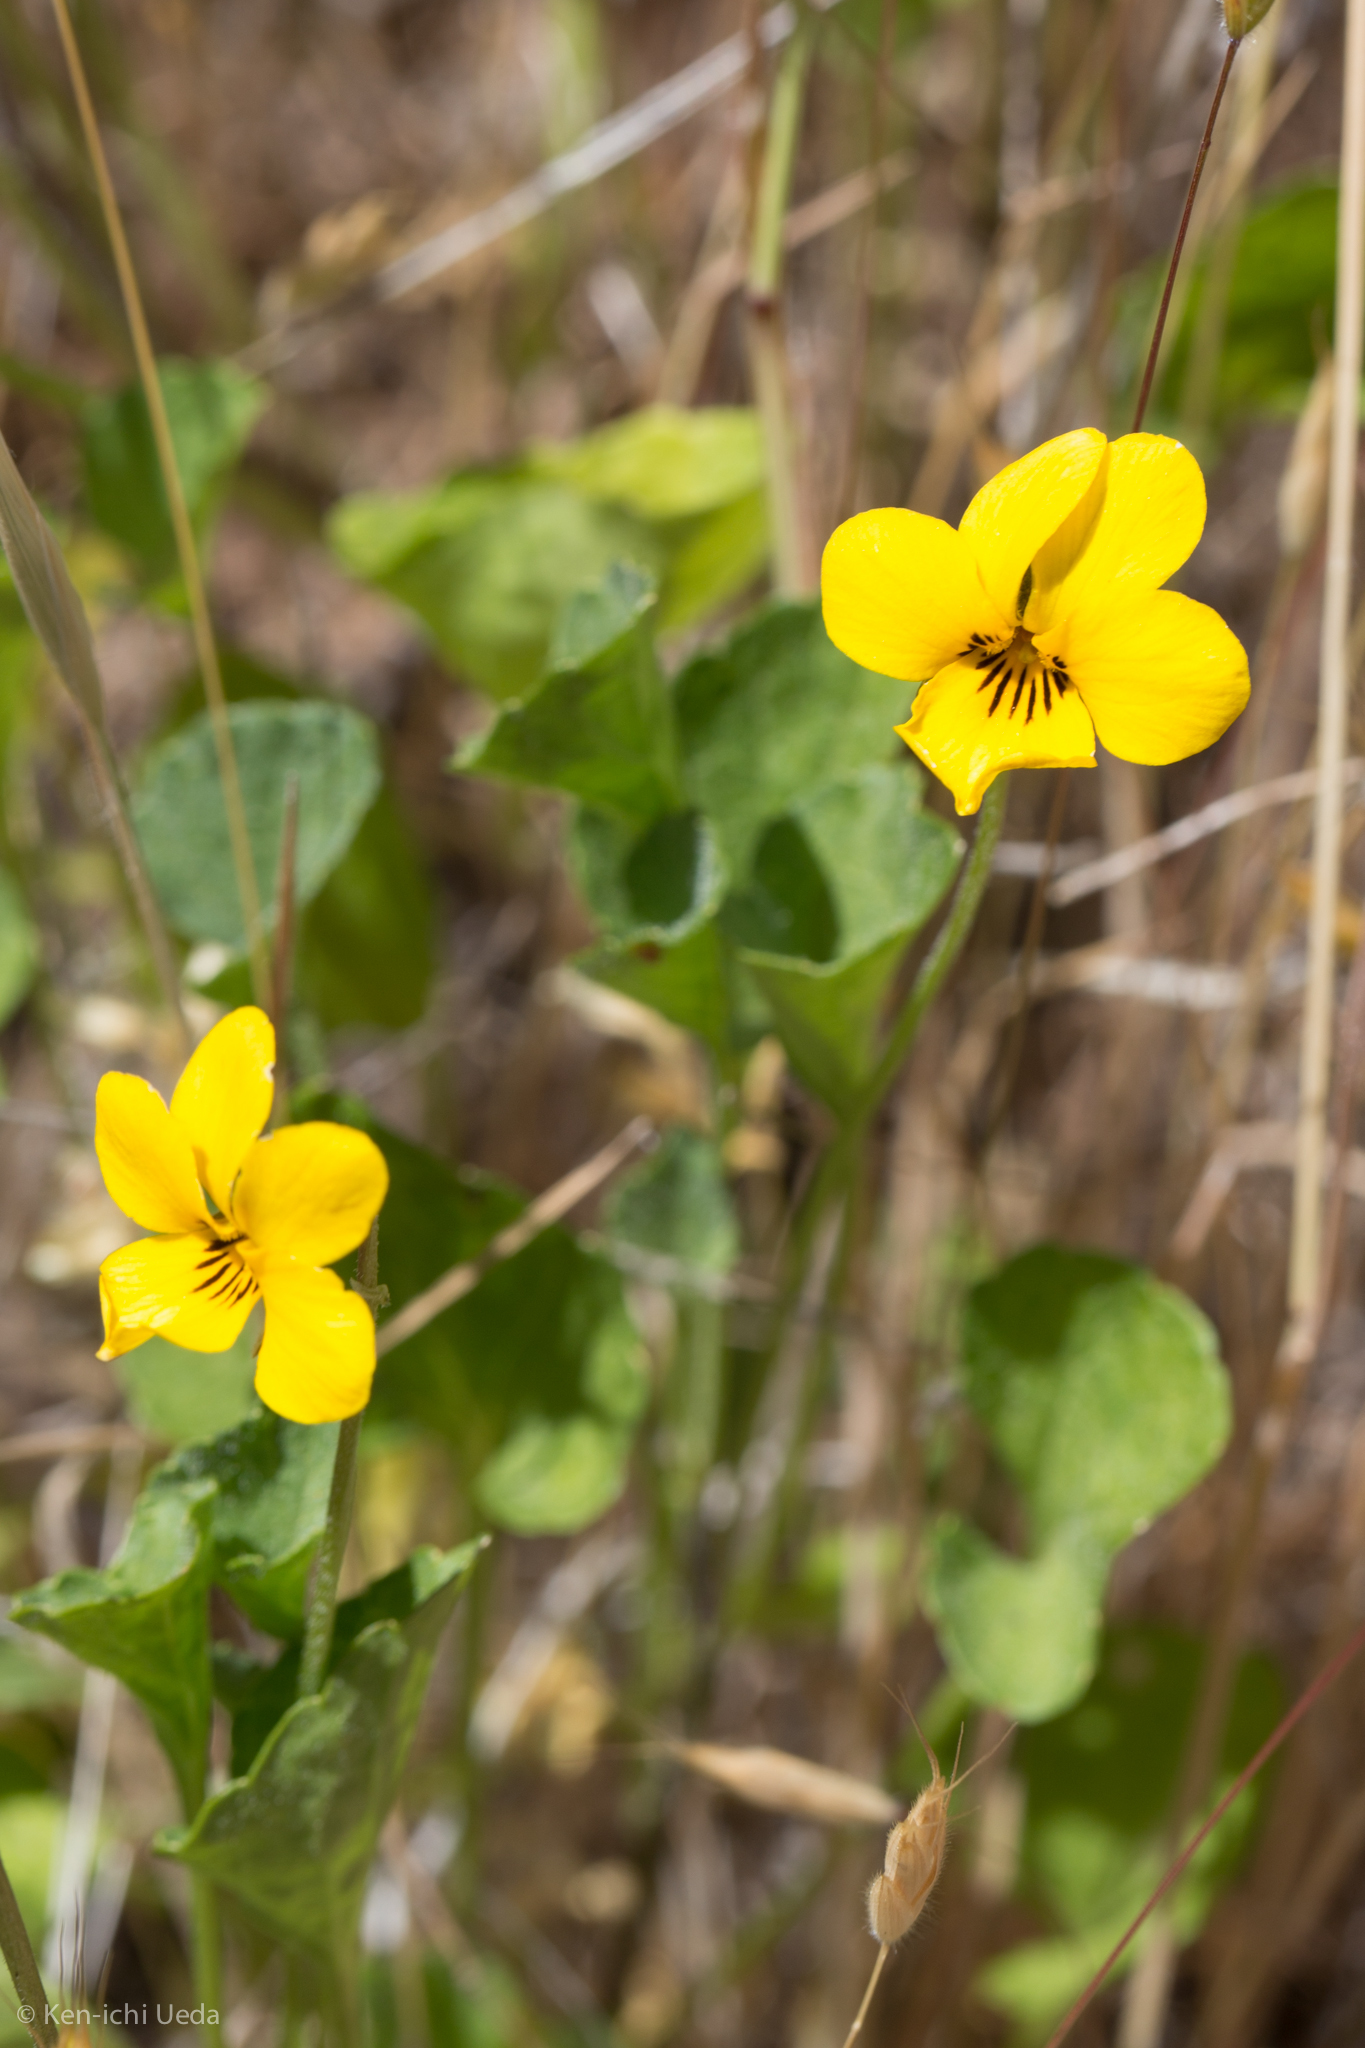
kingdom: Plantae
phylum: Tracheophyta
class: Magnoliopsida
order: Malpighiales
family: Violaceae
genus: Viola
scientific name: Viola pedunculata
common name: California golden violet
